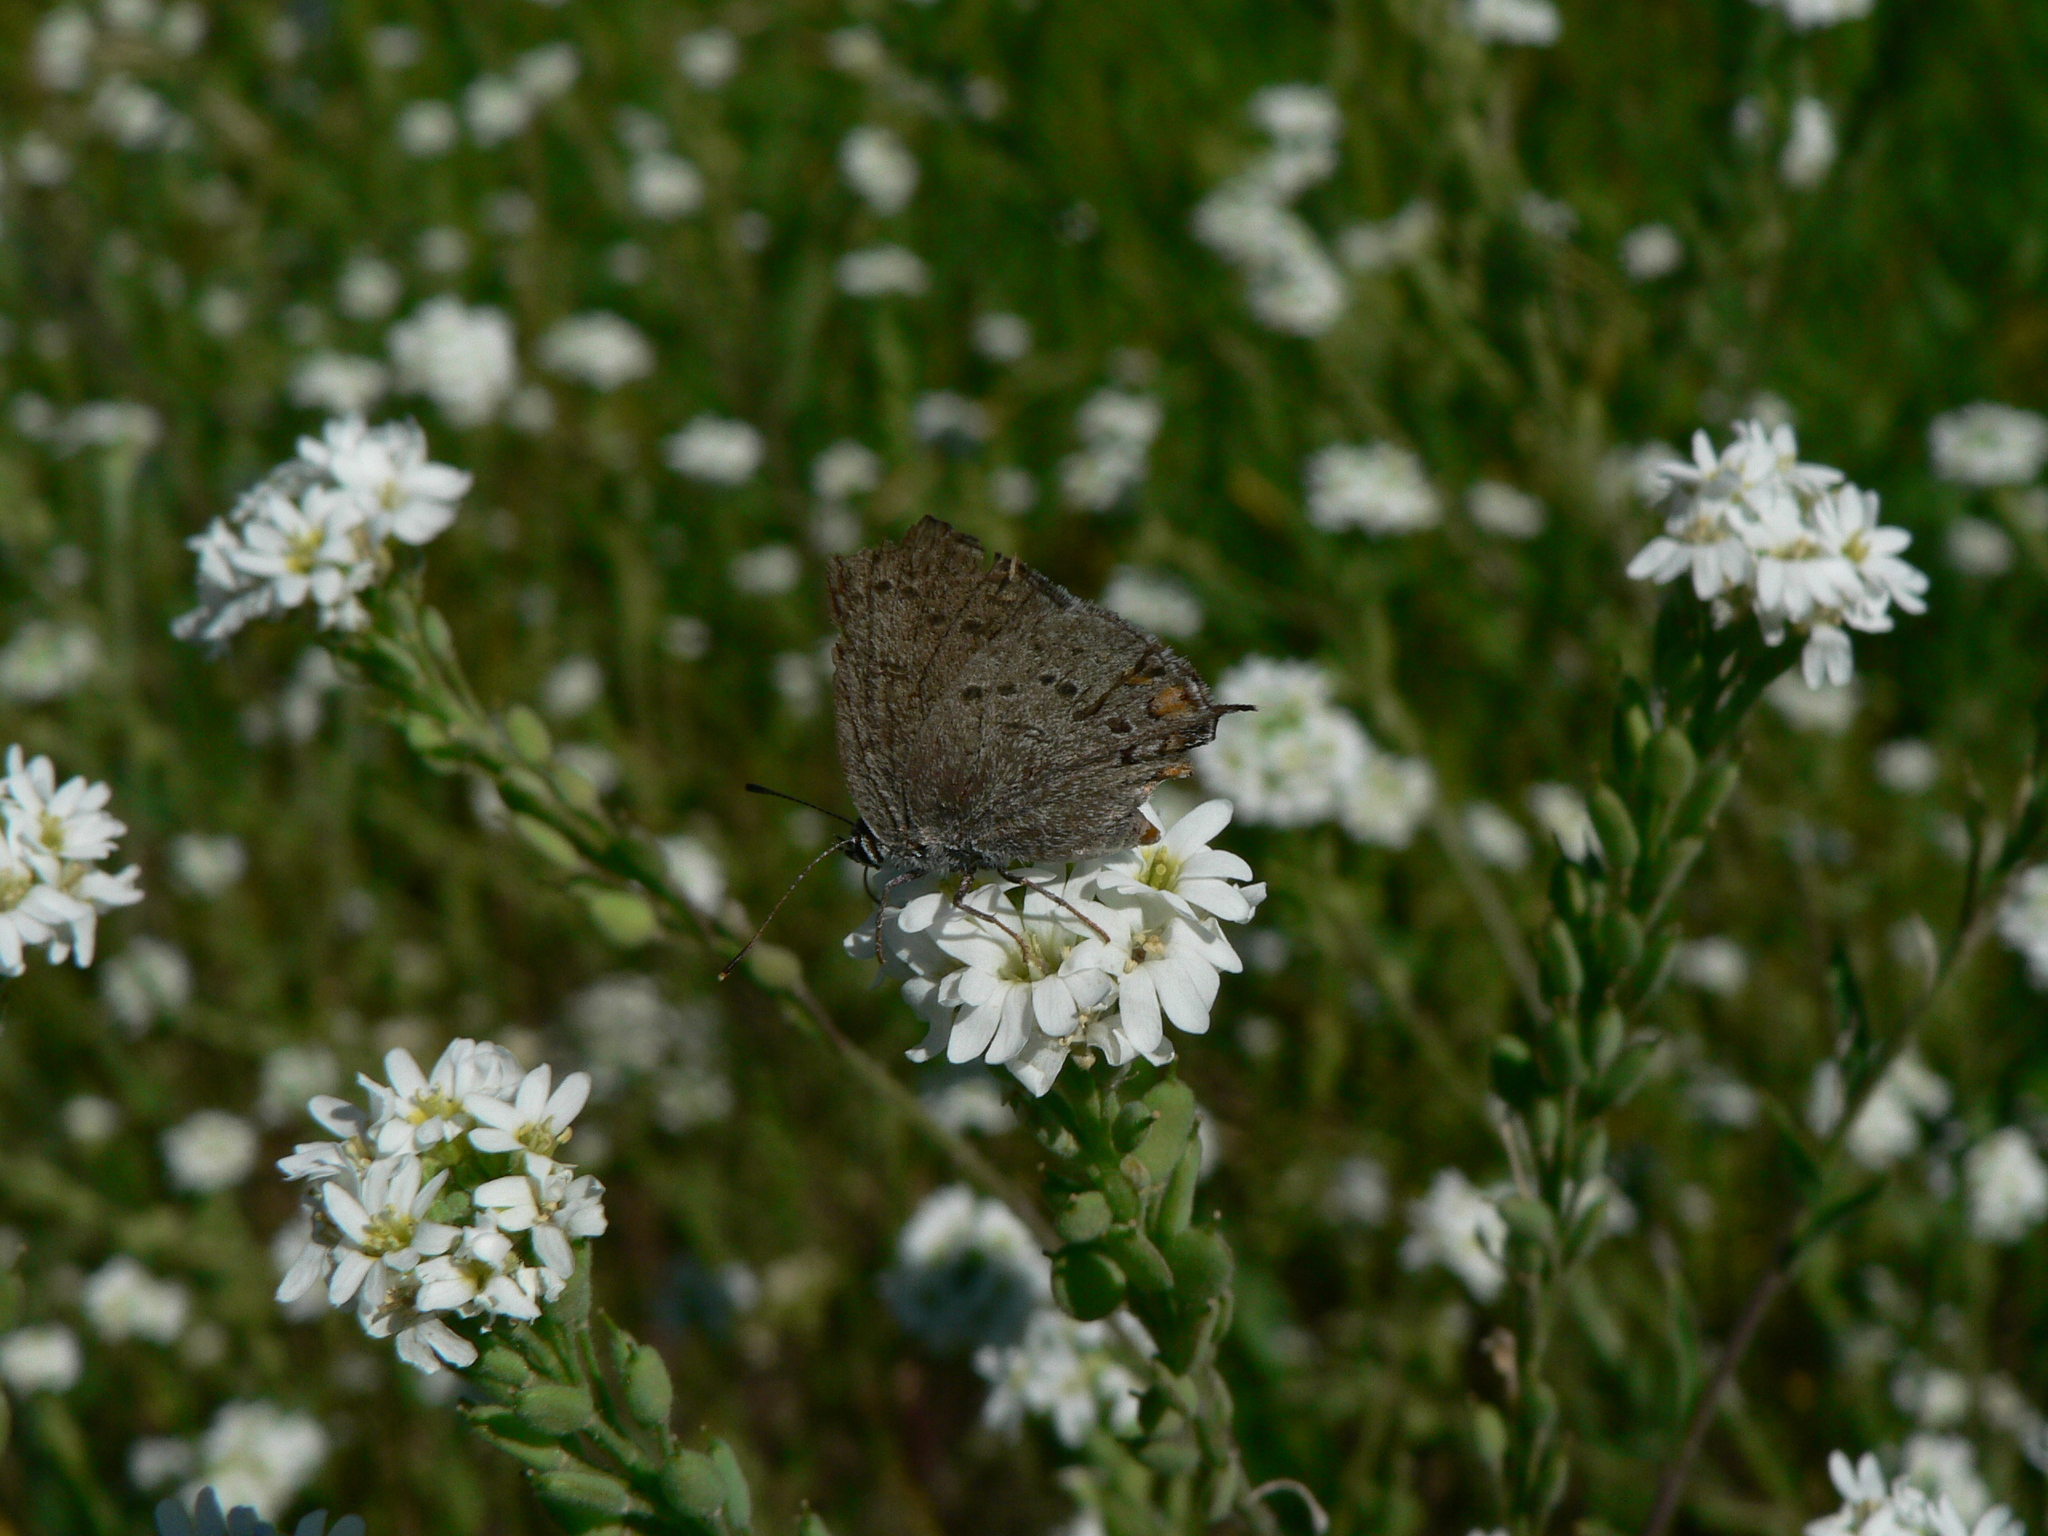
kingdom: Animalia
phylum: Arthropoda
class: Insecta
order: Lepidoptera
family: Lycaenidae
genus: Strymon
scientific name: Strymon sylvinus
